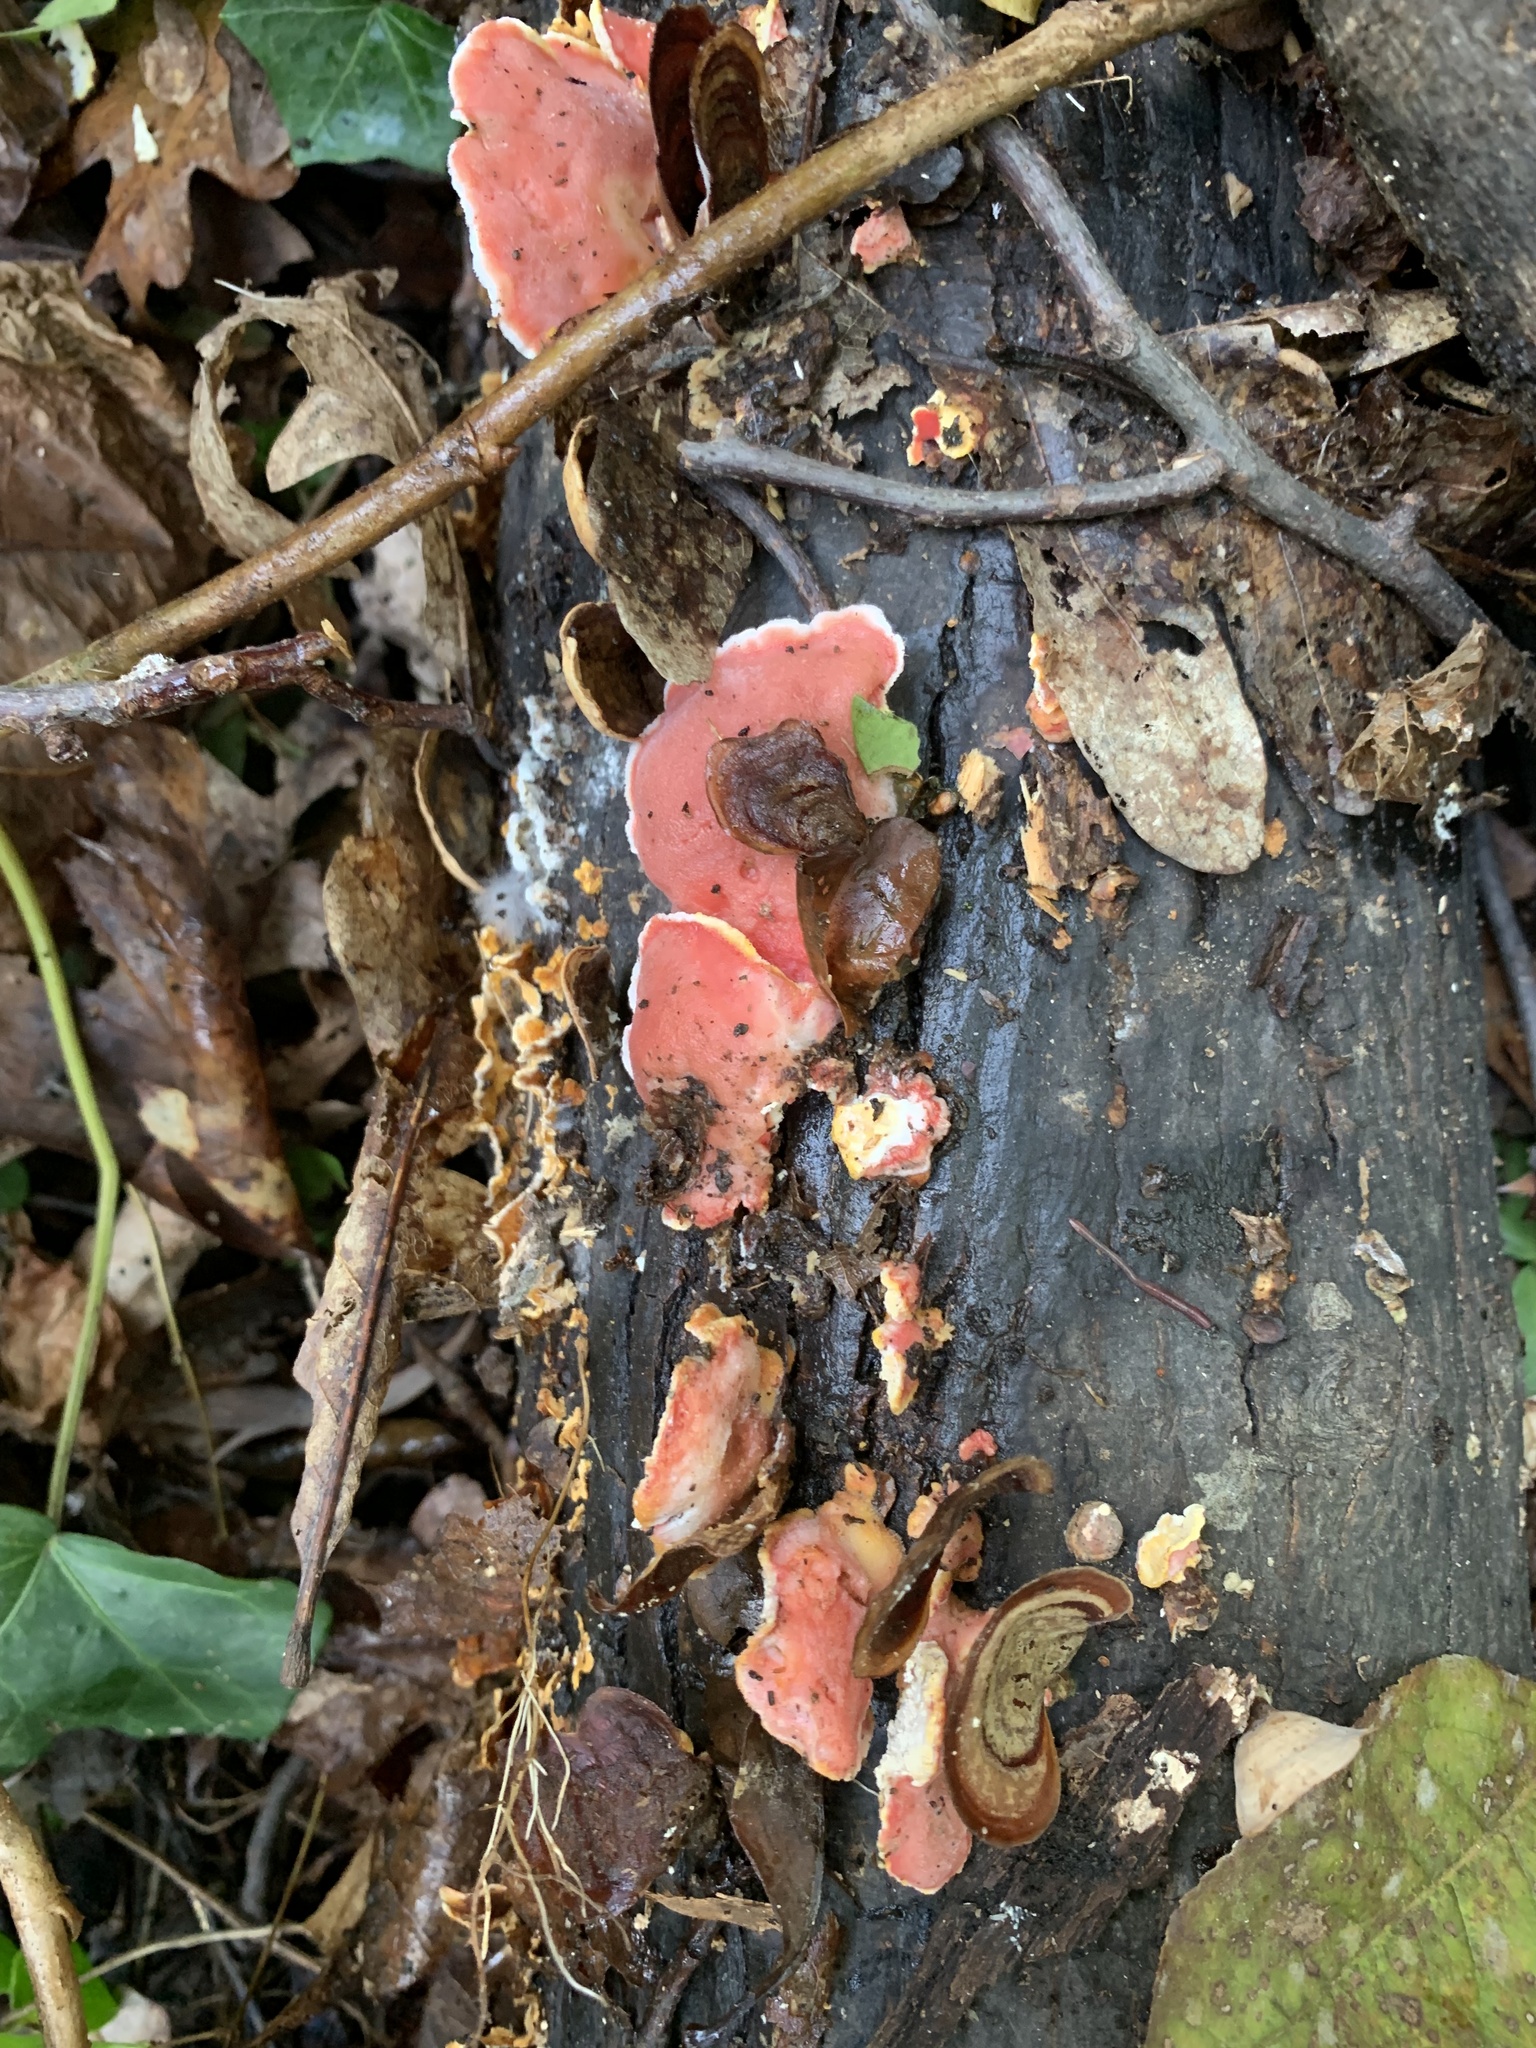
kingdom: Fungi
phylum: Basidiomycota
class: Agaricomycetes
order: Polyporales
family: Irpicaceae
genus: Byssomerulius
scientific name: Byssomerulius incarnatus
